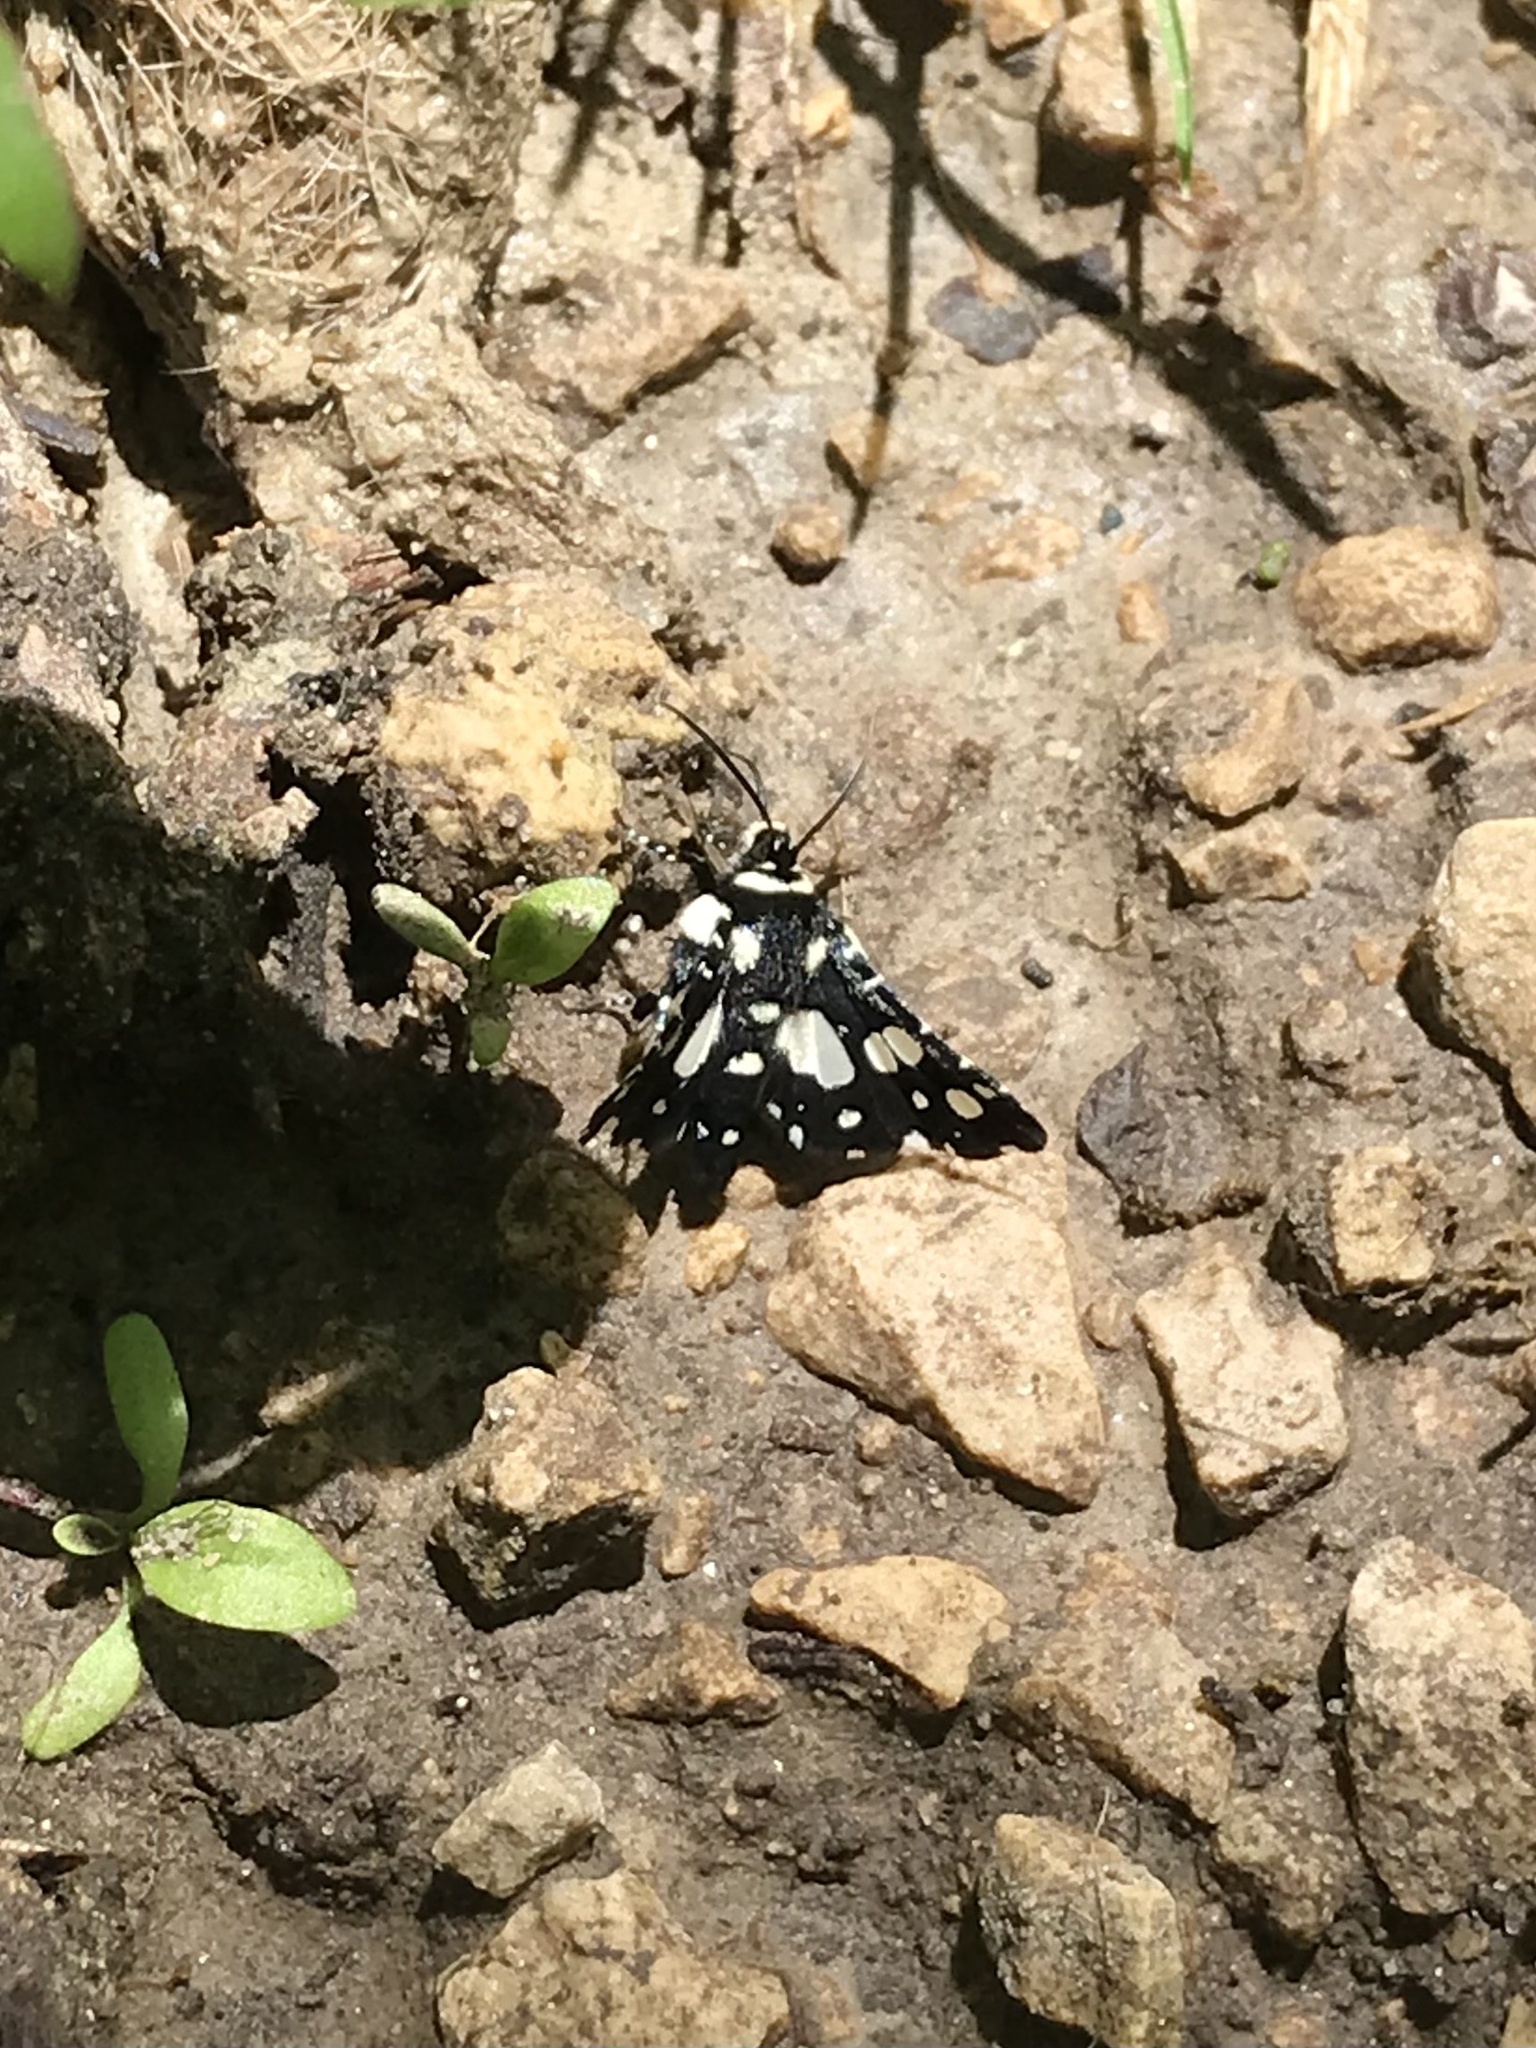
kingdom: Animalia
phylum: Arthropoda
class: Insecta
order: Lepidoptera
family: Thyrididae
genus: Pseudothyris
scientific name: Pseudothyris sepulchralis
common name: Mournful thyris moth
